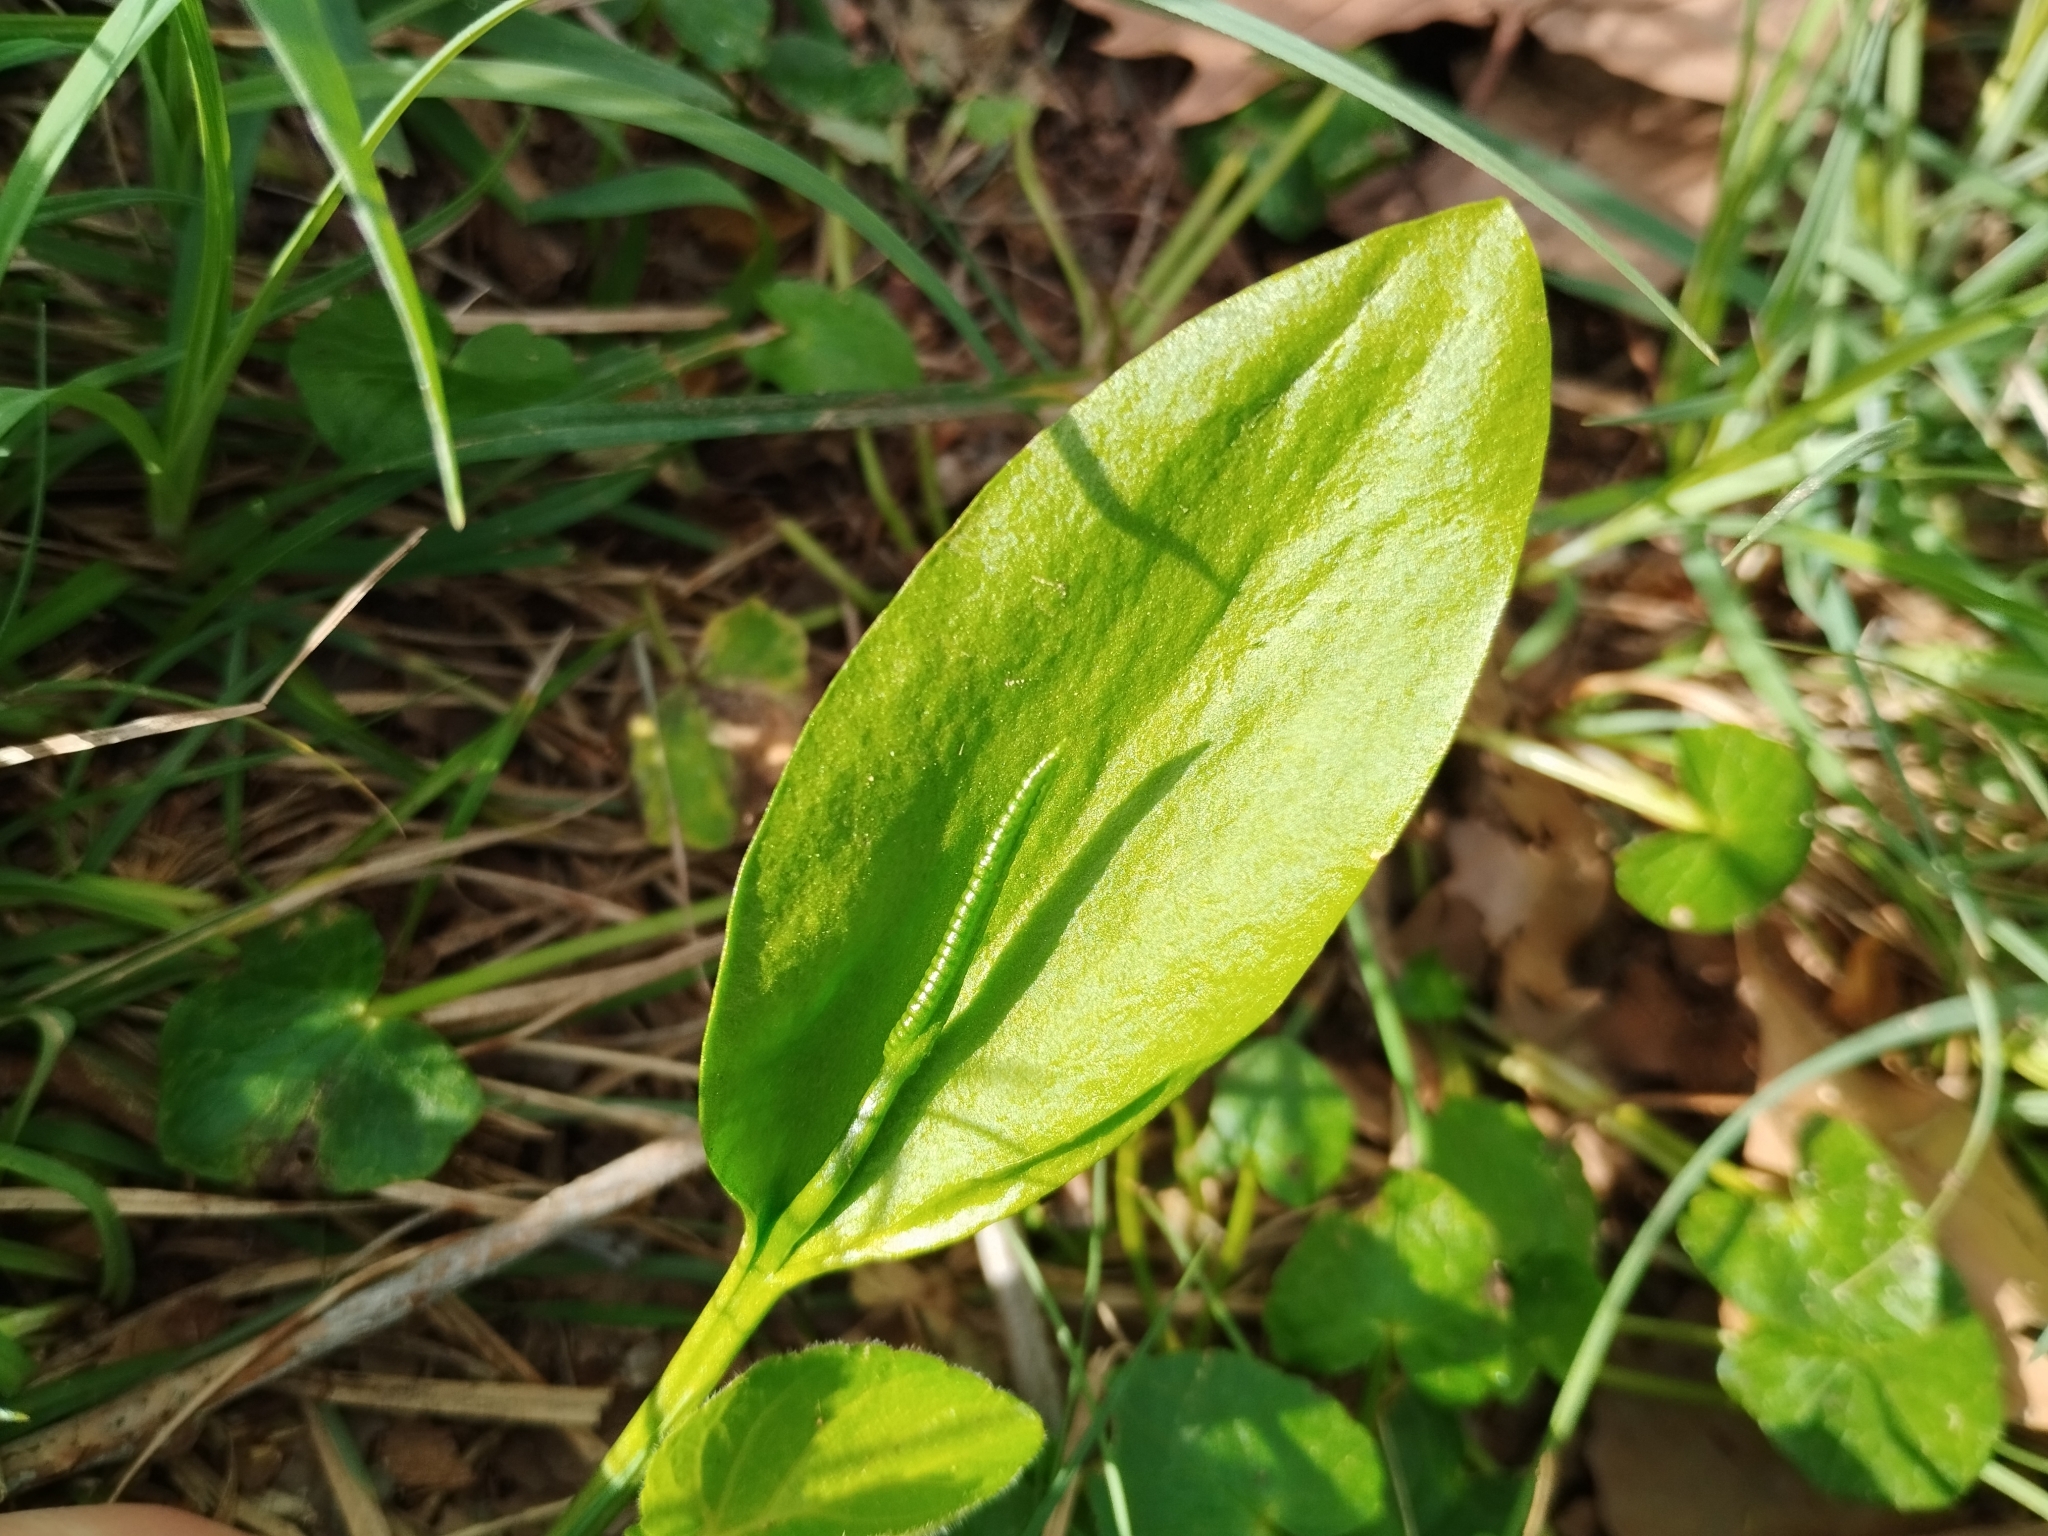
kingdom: Plantae
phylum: Tracheophyta
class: Polypodiopsida
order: Ophioglossales
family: Ophioglossaceae
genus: Ophioglossum
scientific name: Ophioglossum vulgatum
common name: Adder's-tongue
